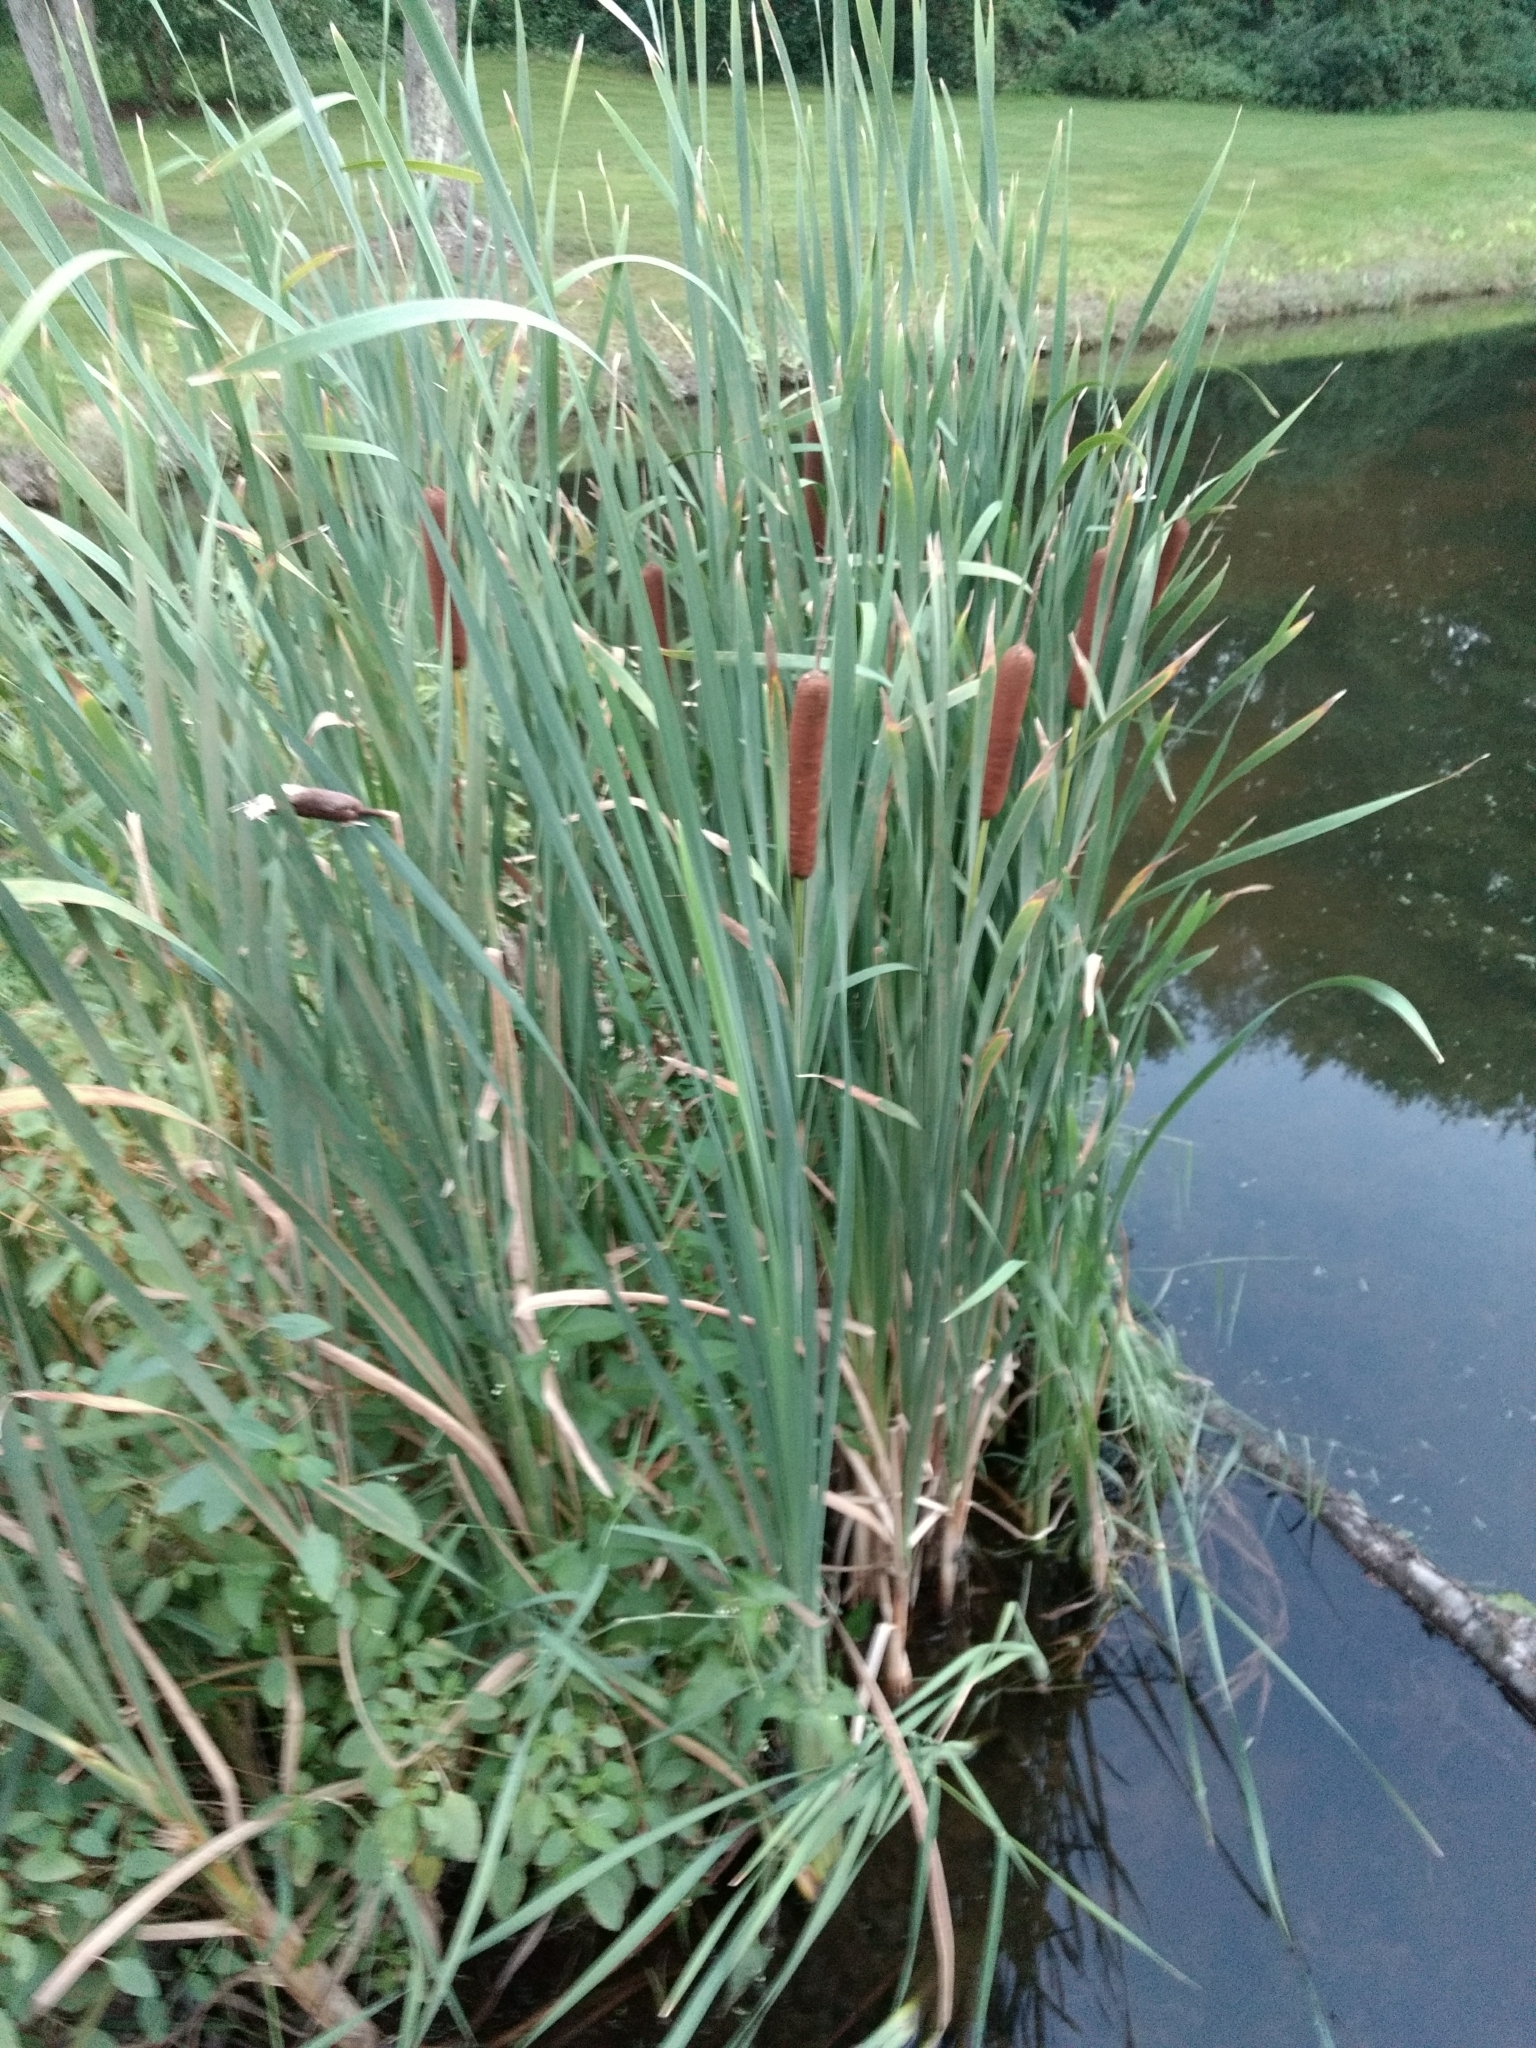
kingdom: Plantae
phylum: Tracheophyta
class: Liliopsida
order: Poales
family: Typhaceae
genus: Typha
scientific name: Typha latifolia
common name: Broadleaf cattail
